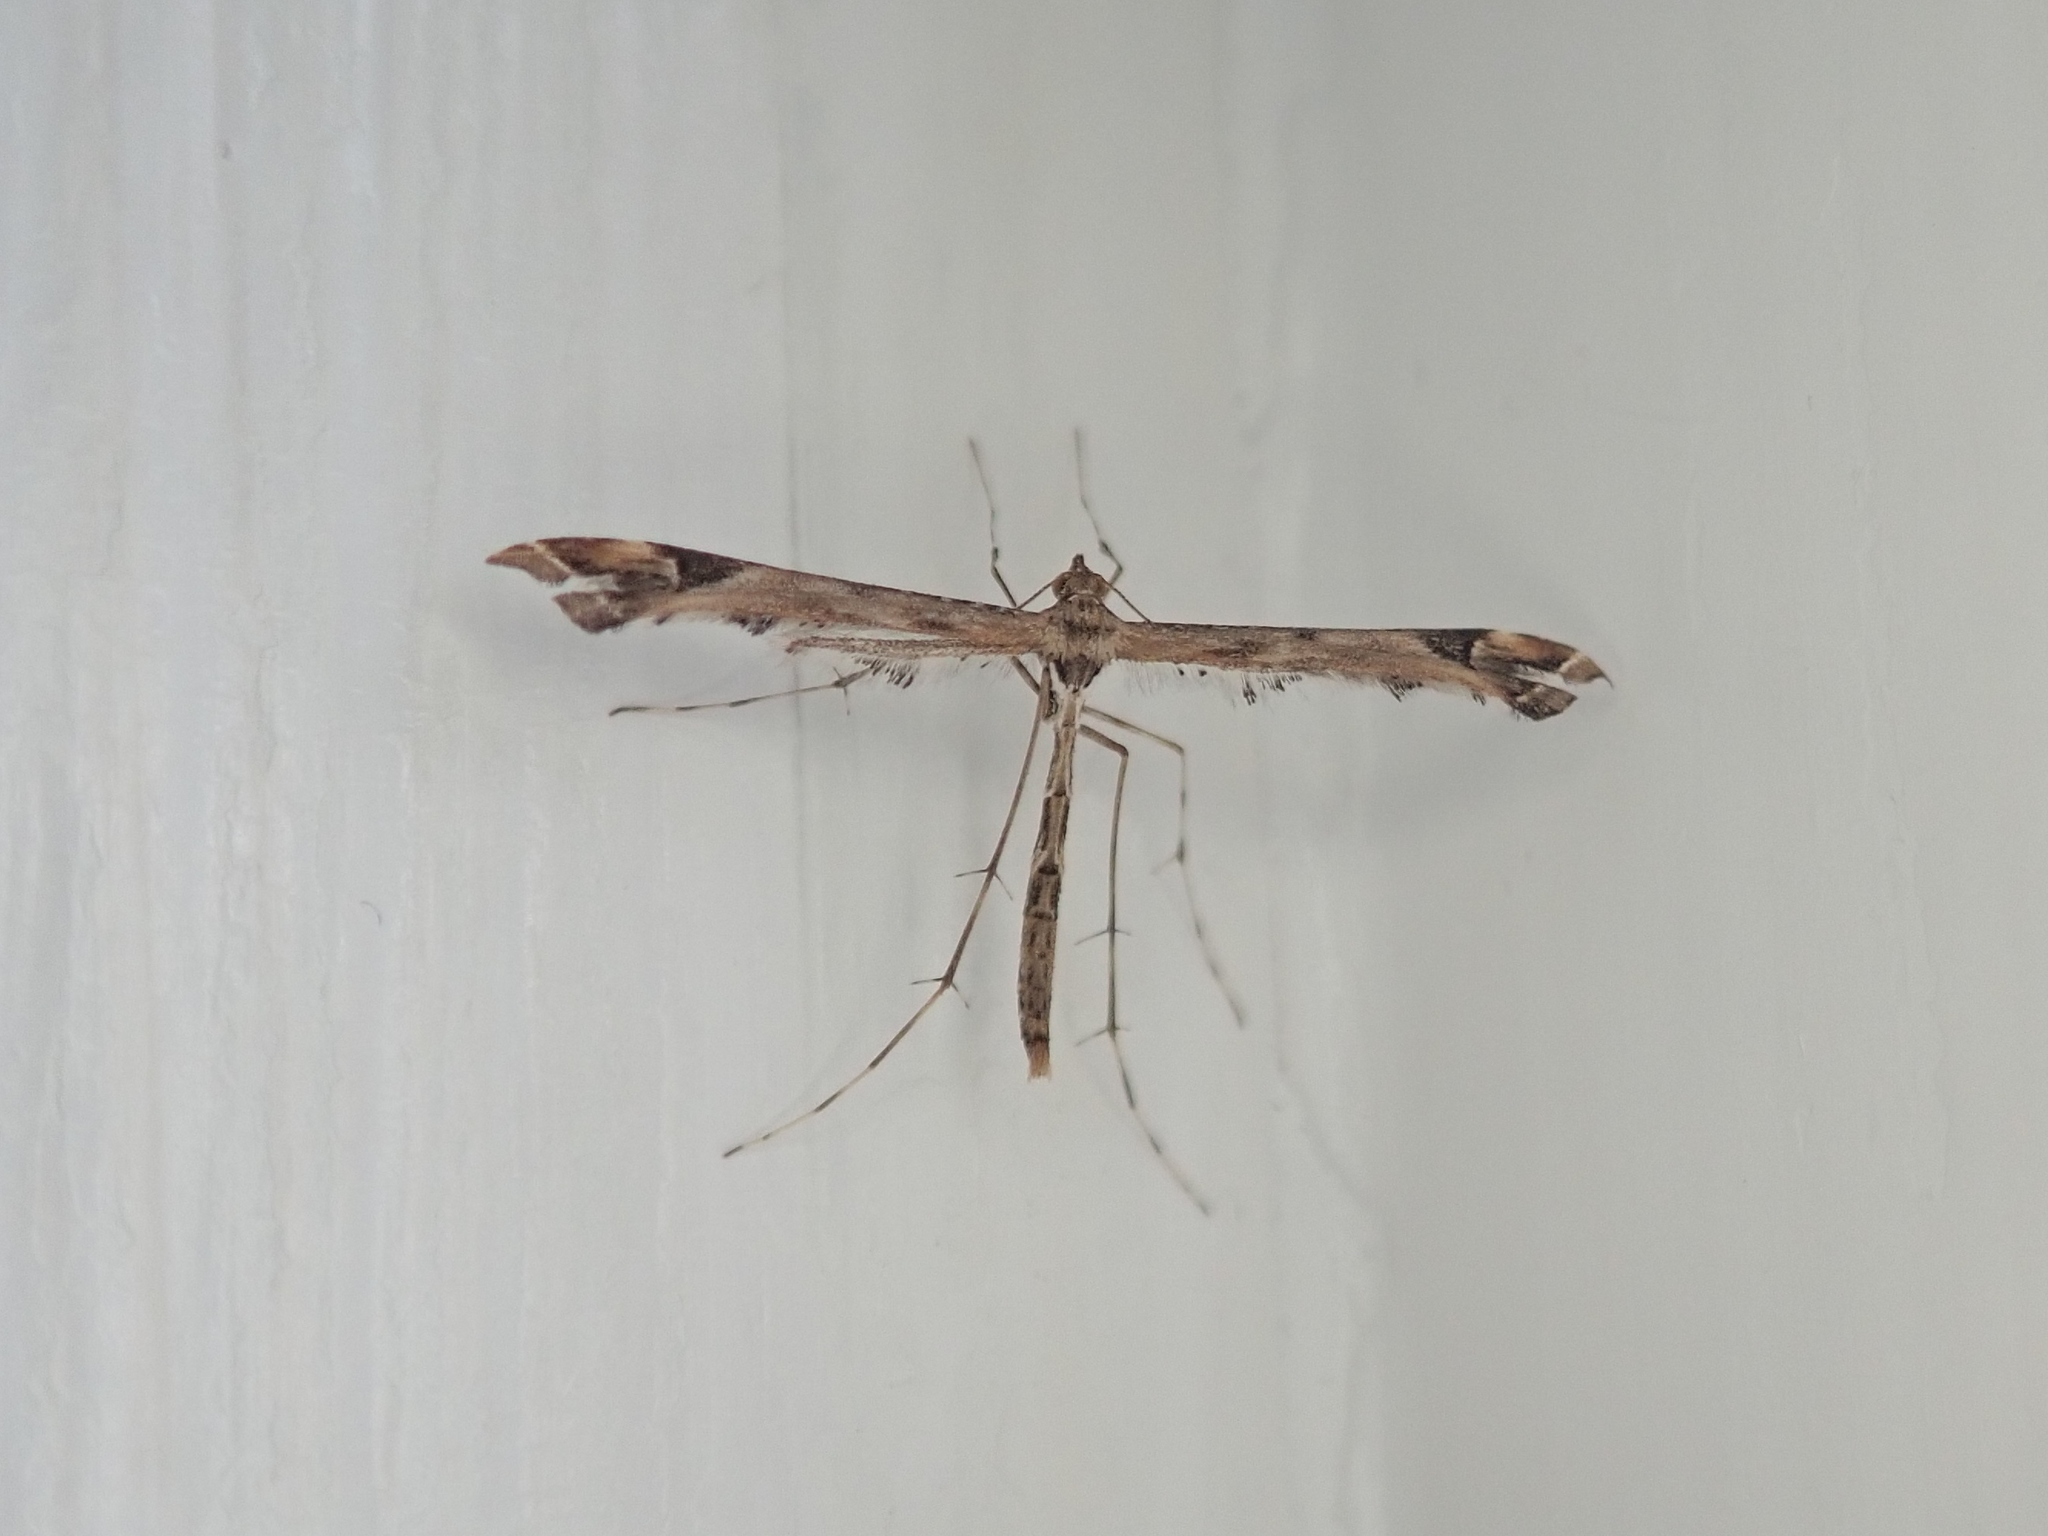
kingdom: Animalia
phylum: Arthropoda
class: Insecta
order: Lepidoptera
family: Pterophoridae
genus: Amblyptilia
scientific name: Amblyptilia acanthadactyla
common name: Beautiful plume
